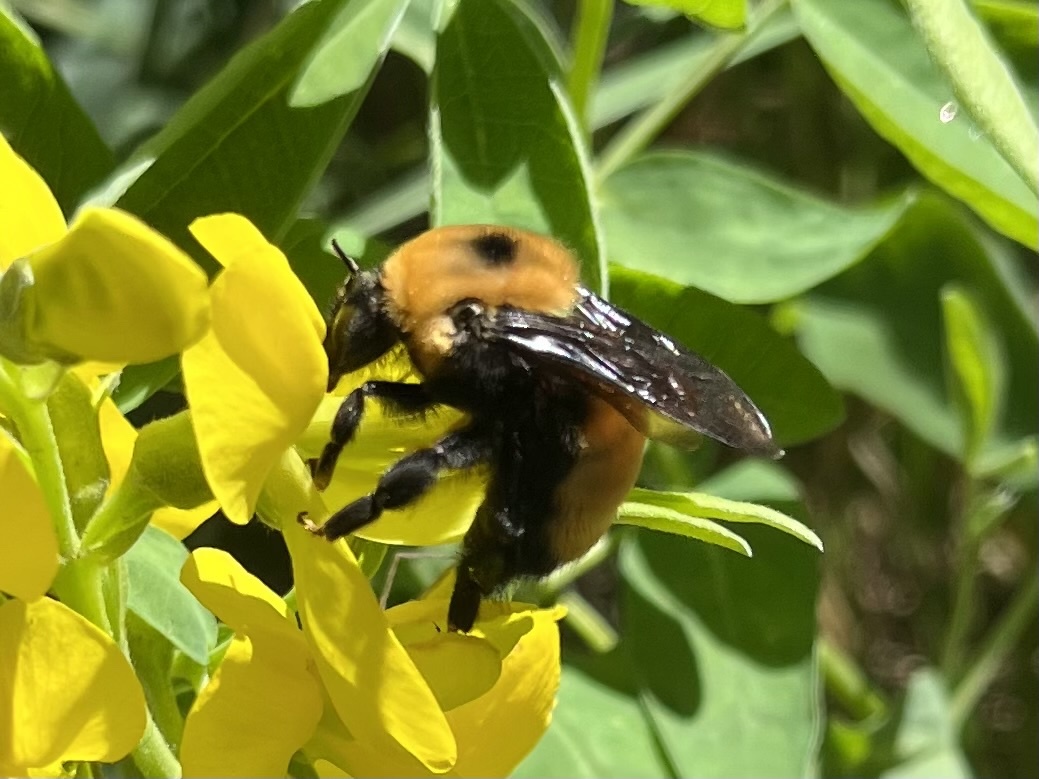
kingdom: Animalia
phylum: Arthropoda
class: Insecta
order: Hymenoptera
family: Apidae
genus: Bombus
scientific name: Bombus nevadensis
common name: Nevada bumble bee
